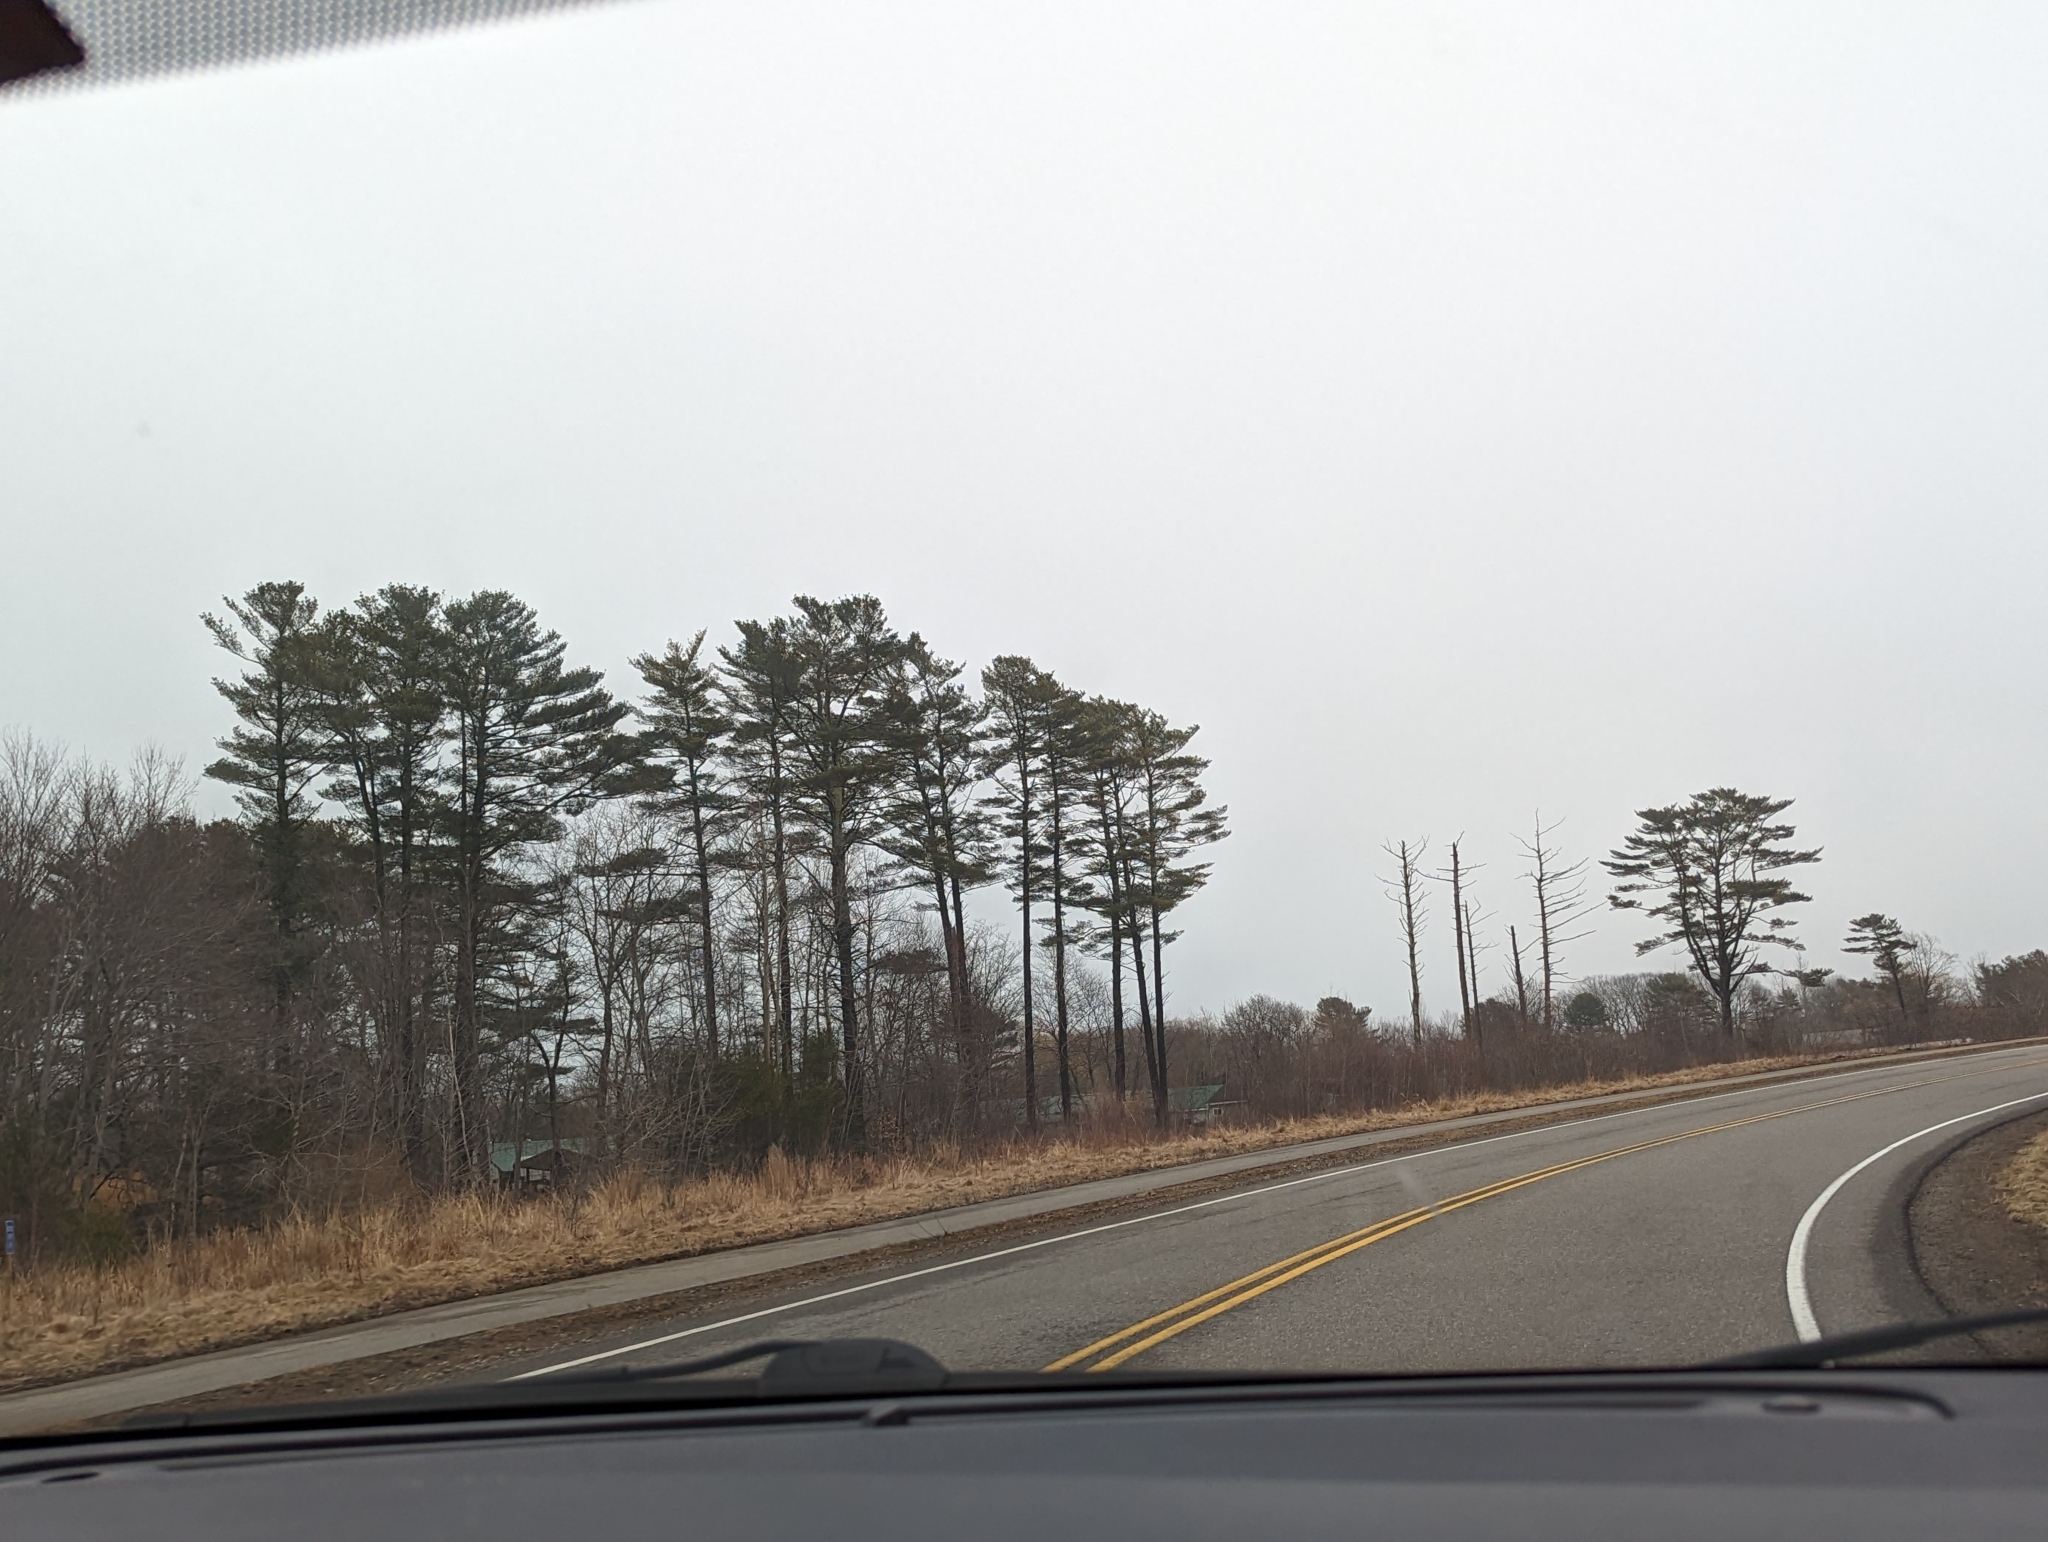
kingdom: Plantae
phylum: Tracheophyta
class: Pinopsida
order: Pinales
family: Pinaceae
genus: Pinus
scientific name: Pinus strobus
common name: Weymouth pine
